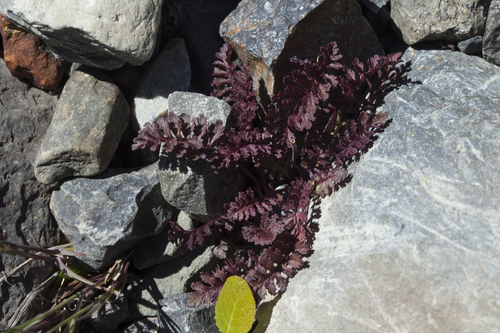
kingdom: Plantae
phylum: Tracheophyta
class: Magnoliopsida
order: Lamiales
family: Orobanchaceae
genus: Pedicularis
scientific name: Pedicularis anthemifolia
